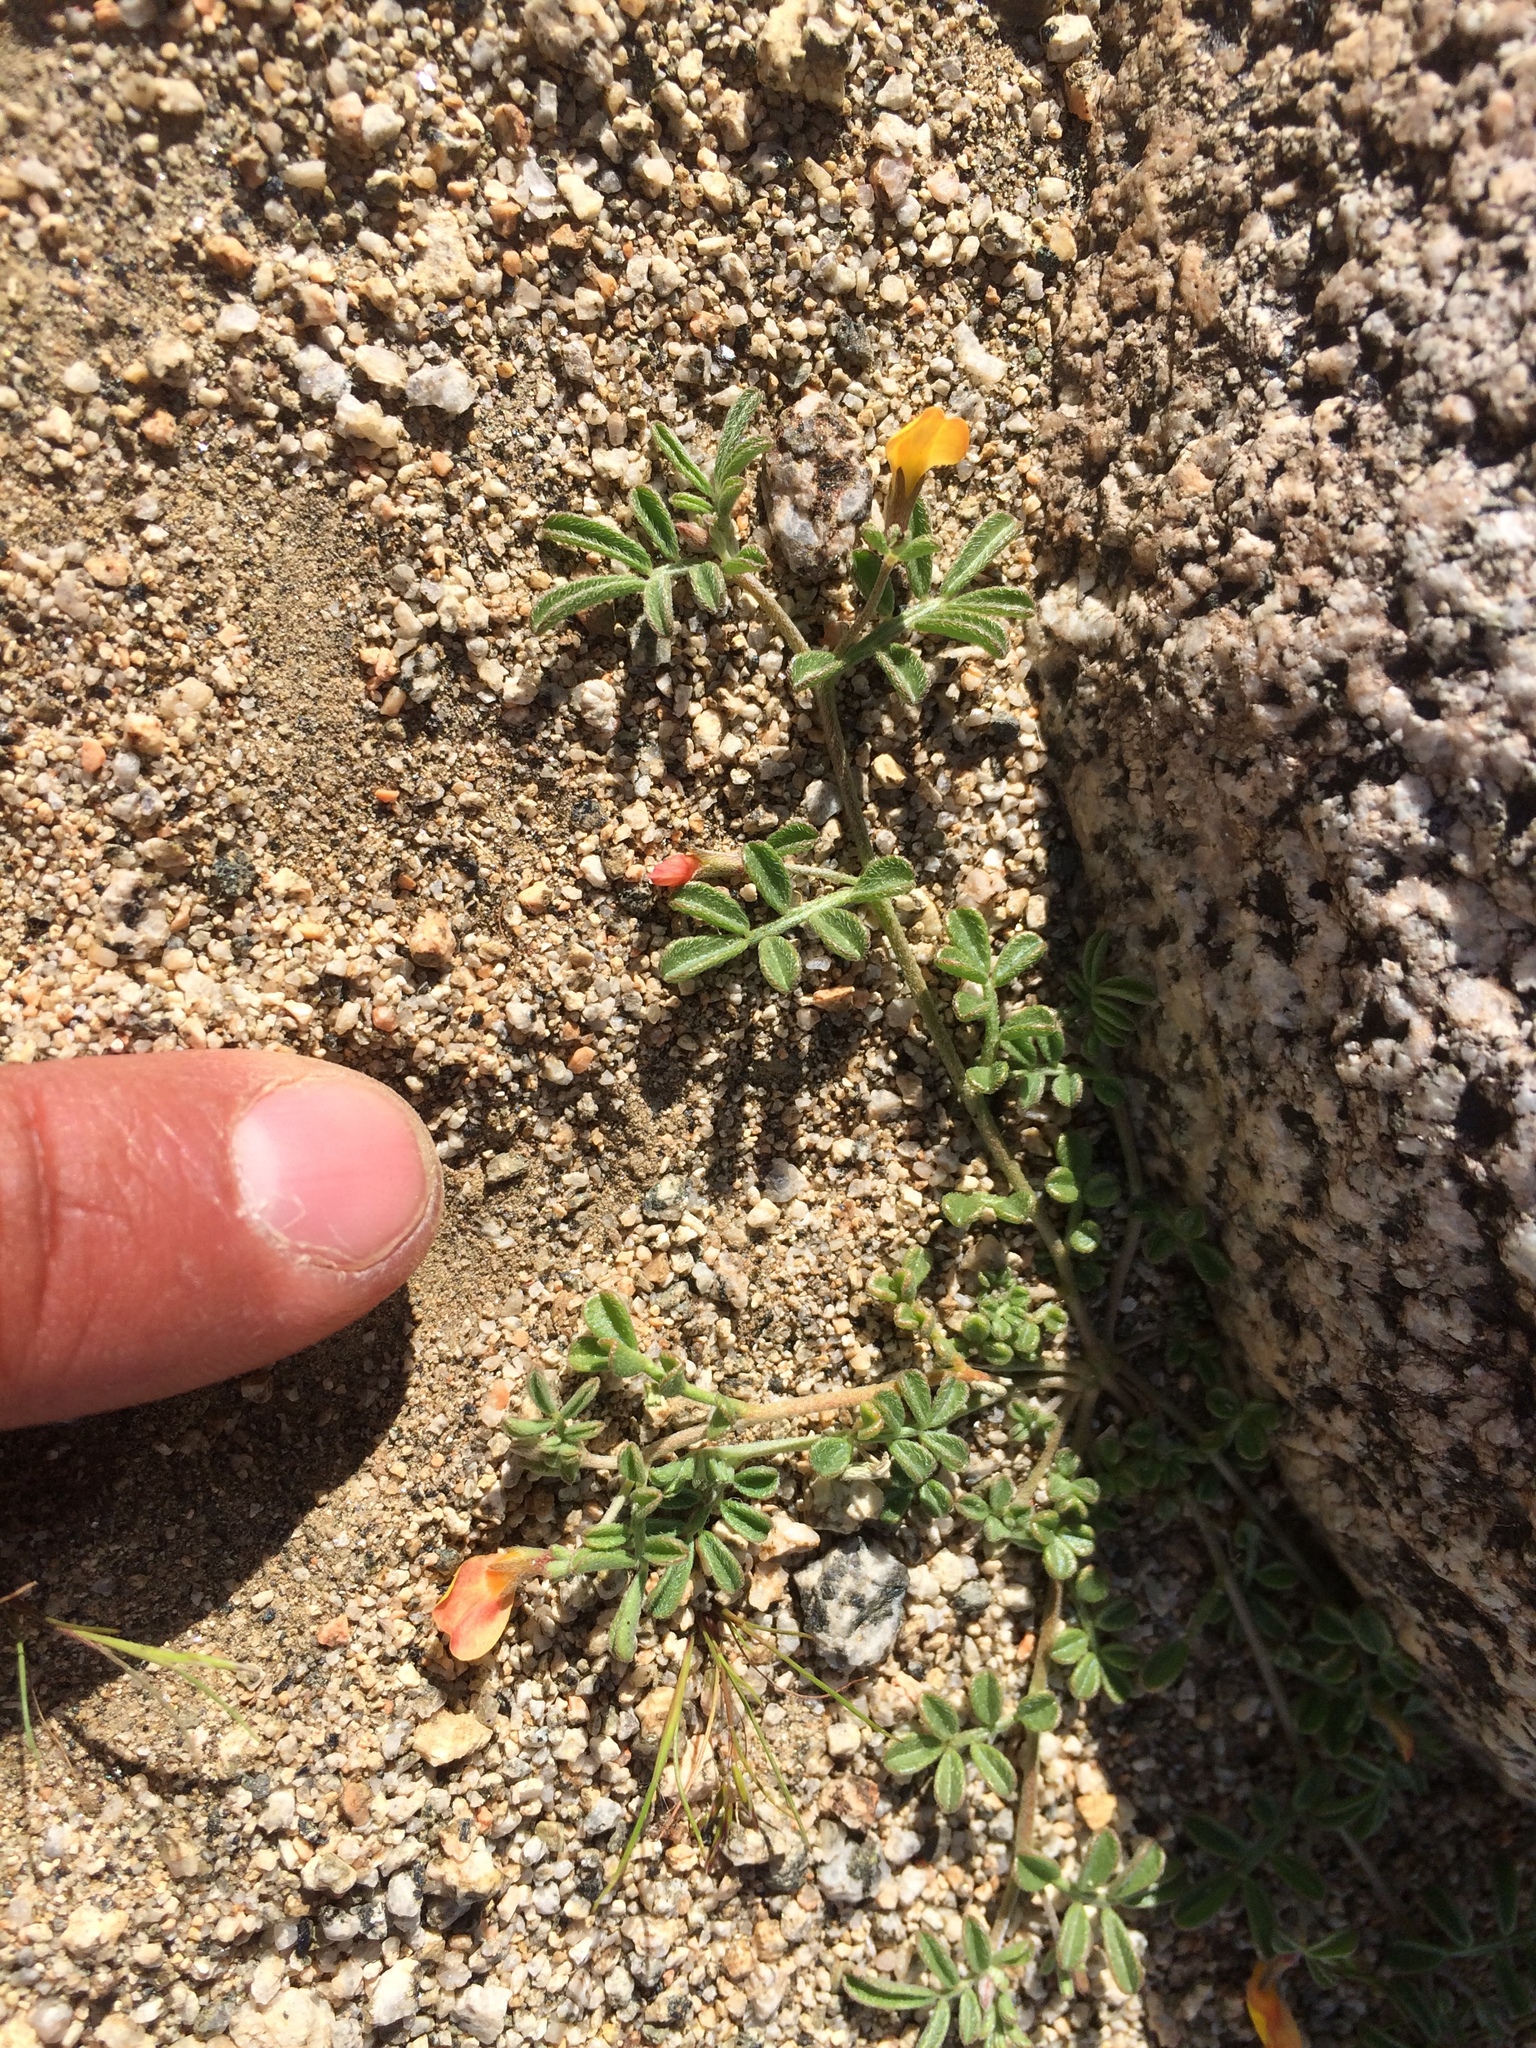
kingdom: Plantae
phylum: Tracheophyta
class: Magnoliopsida
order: Fabales
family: Fabaceae
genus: Acmispon
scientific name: Acmispon strigosus
